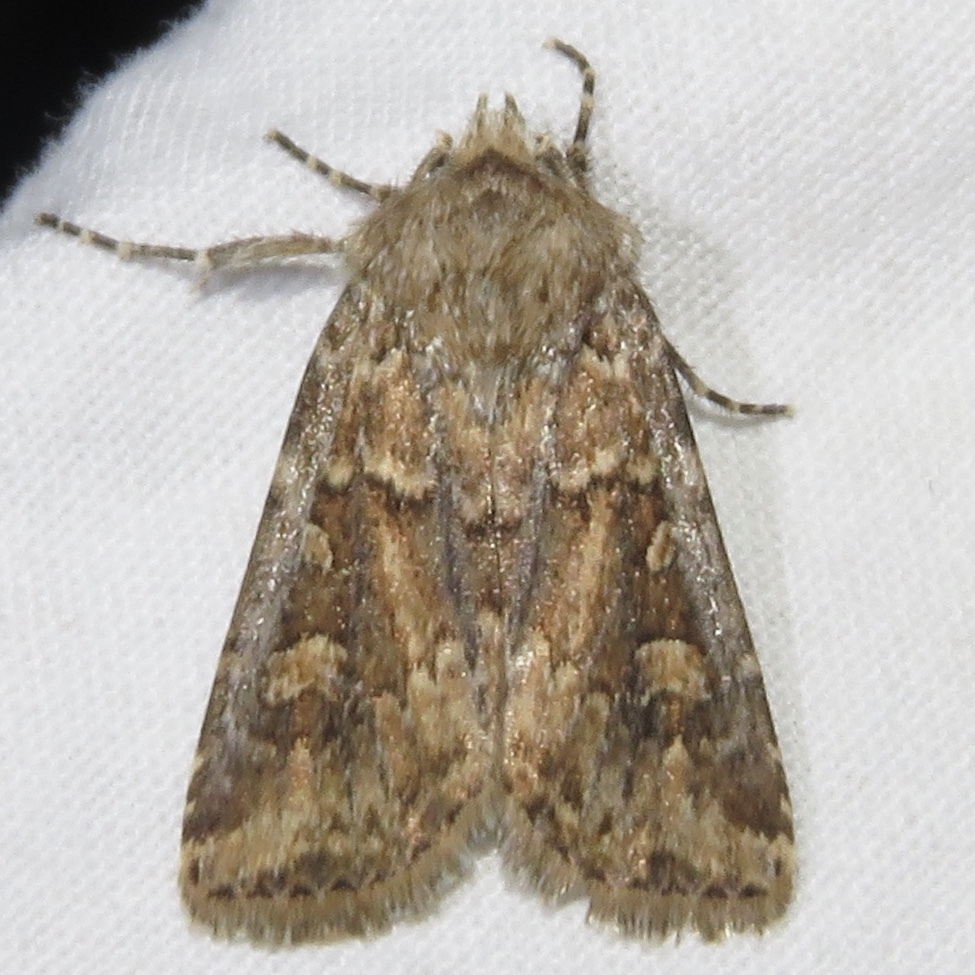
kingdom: Animalia
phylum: Arthropoda
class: Insecta
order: Lepidoptera
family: Noctuidae
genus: Euxoa
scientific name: Euxoa detersa
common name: Rubbed dart
